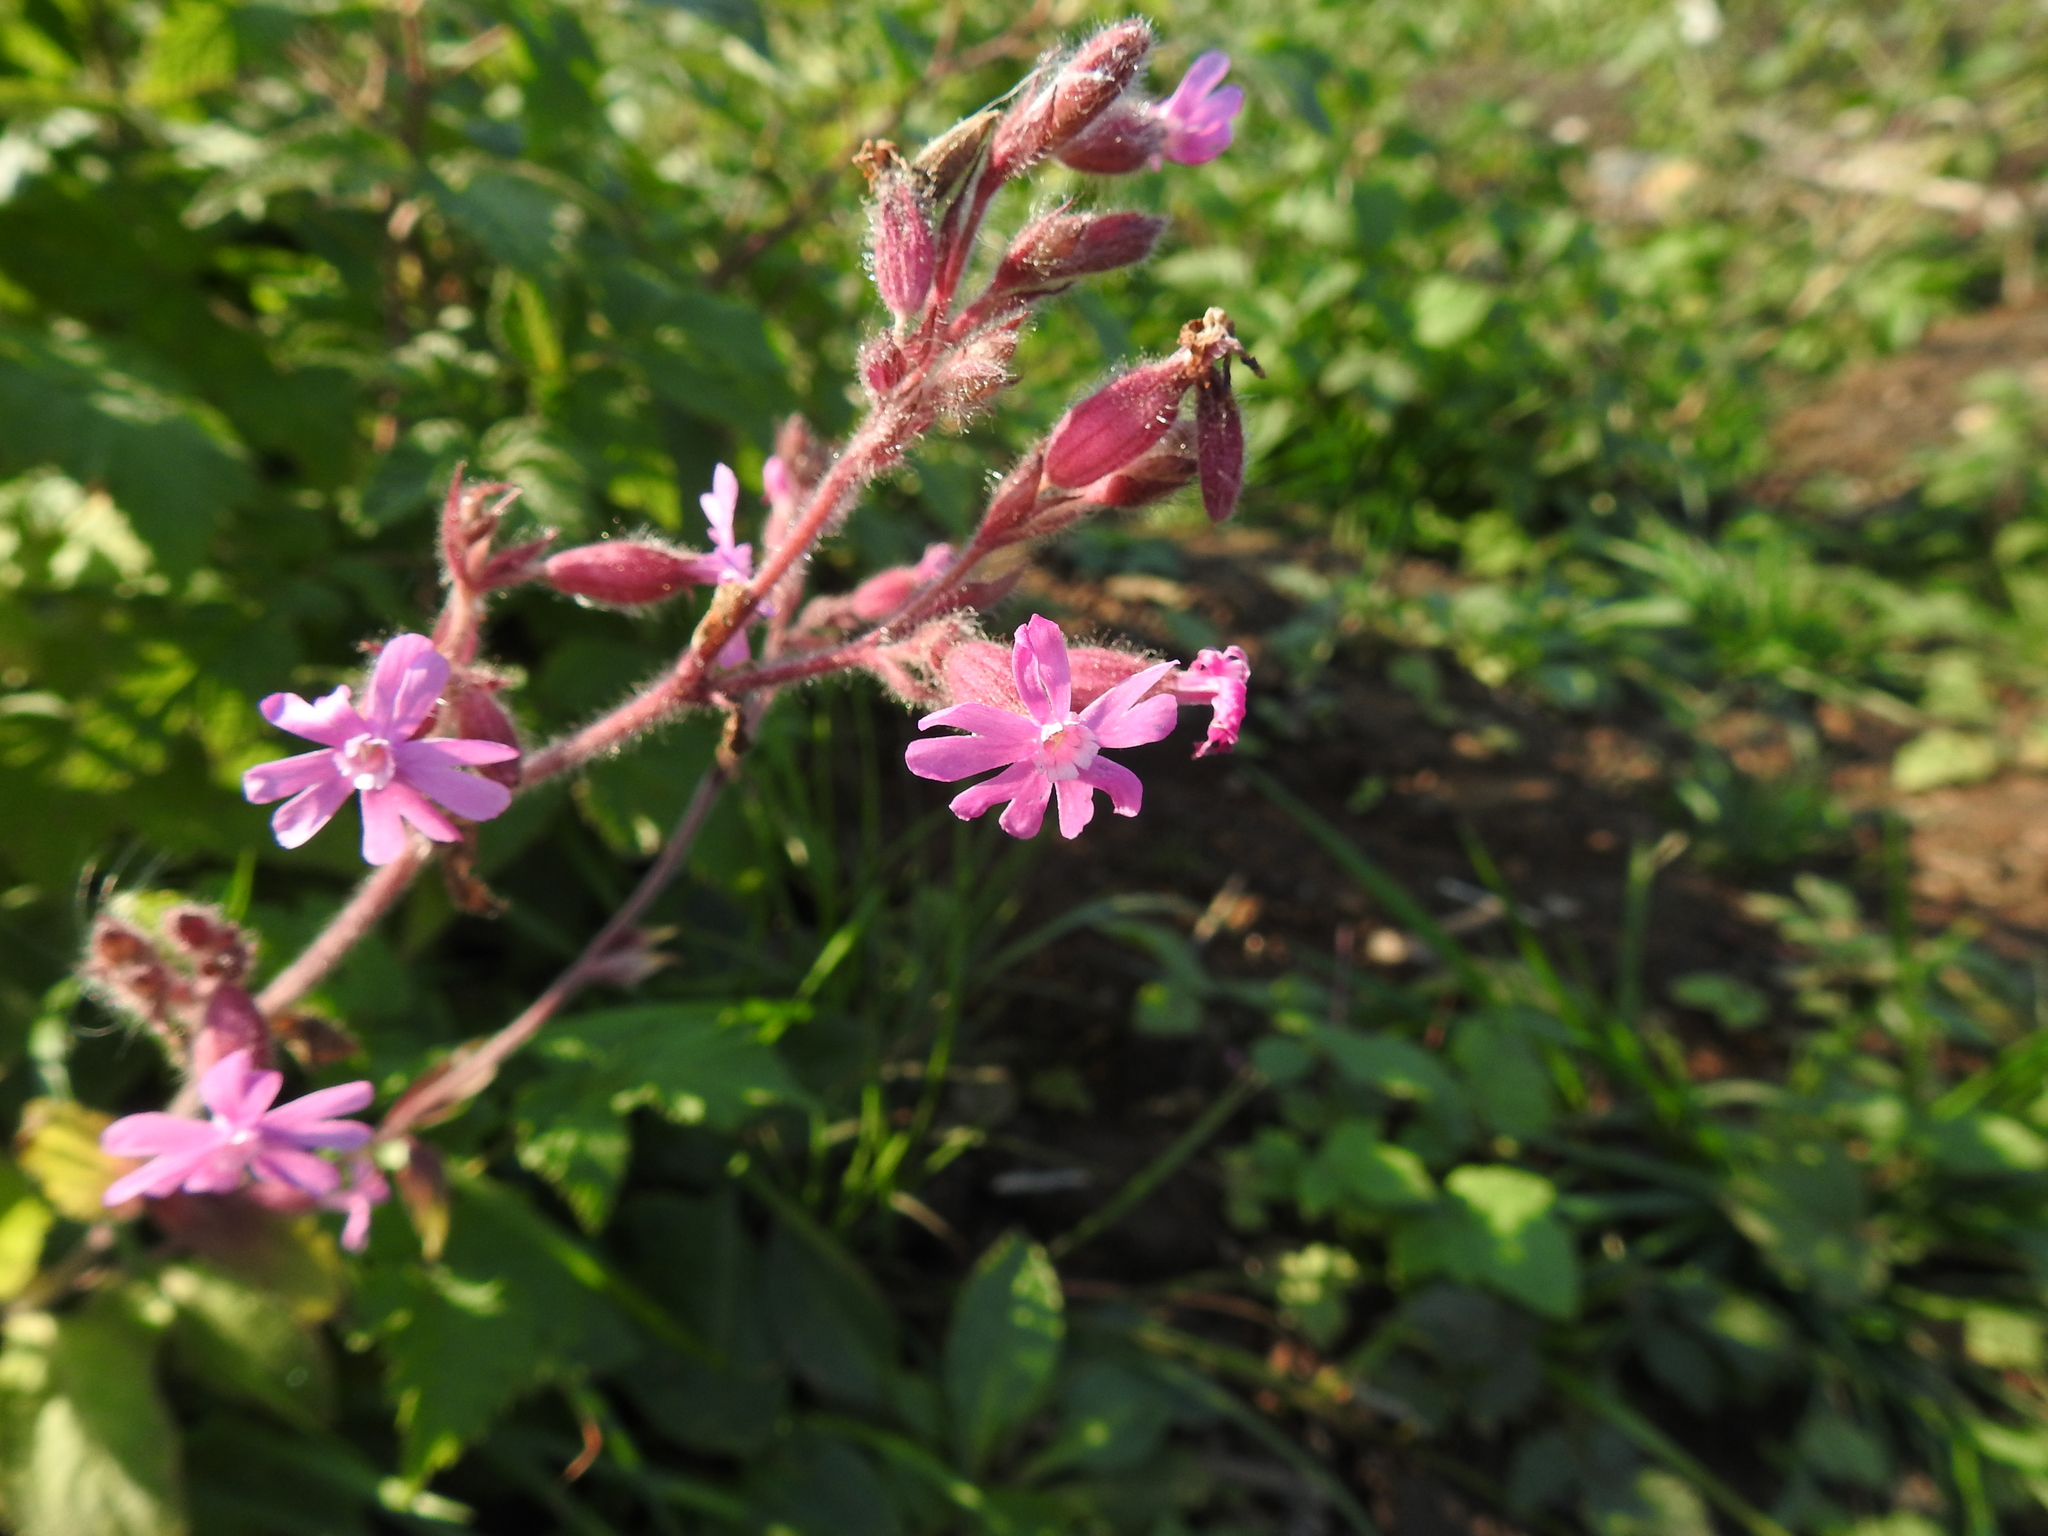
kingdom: Plantae
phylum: Tracheophyta
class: Magnoliopsida
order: Caryophyllales
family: Caryophyllaceae
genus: Silene
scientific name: Silene dioica
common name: Red campion
